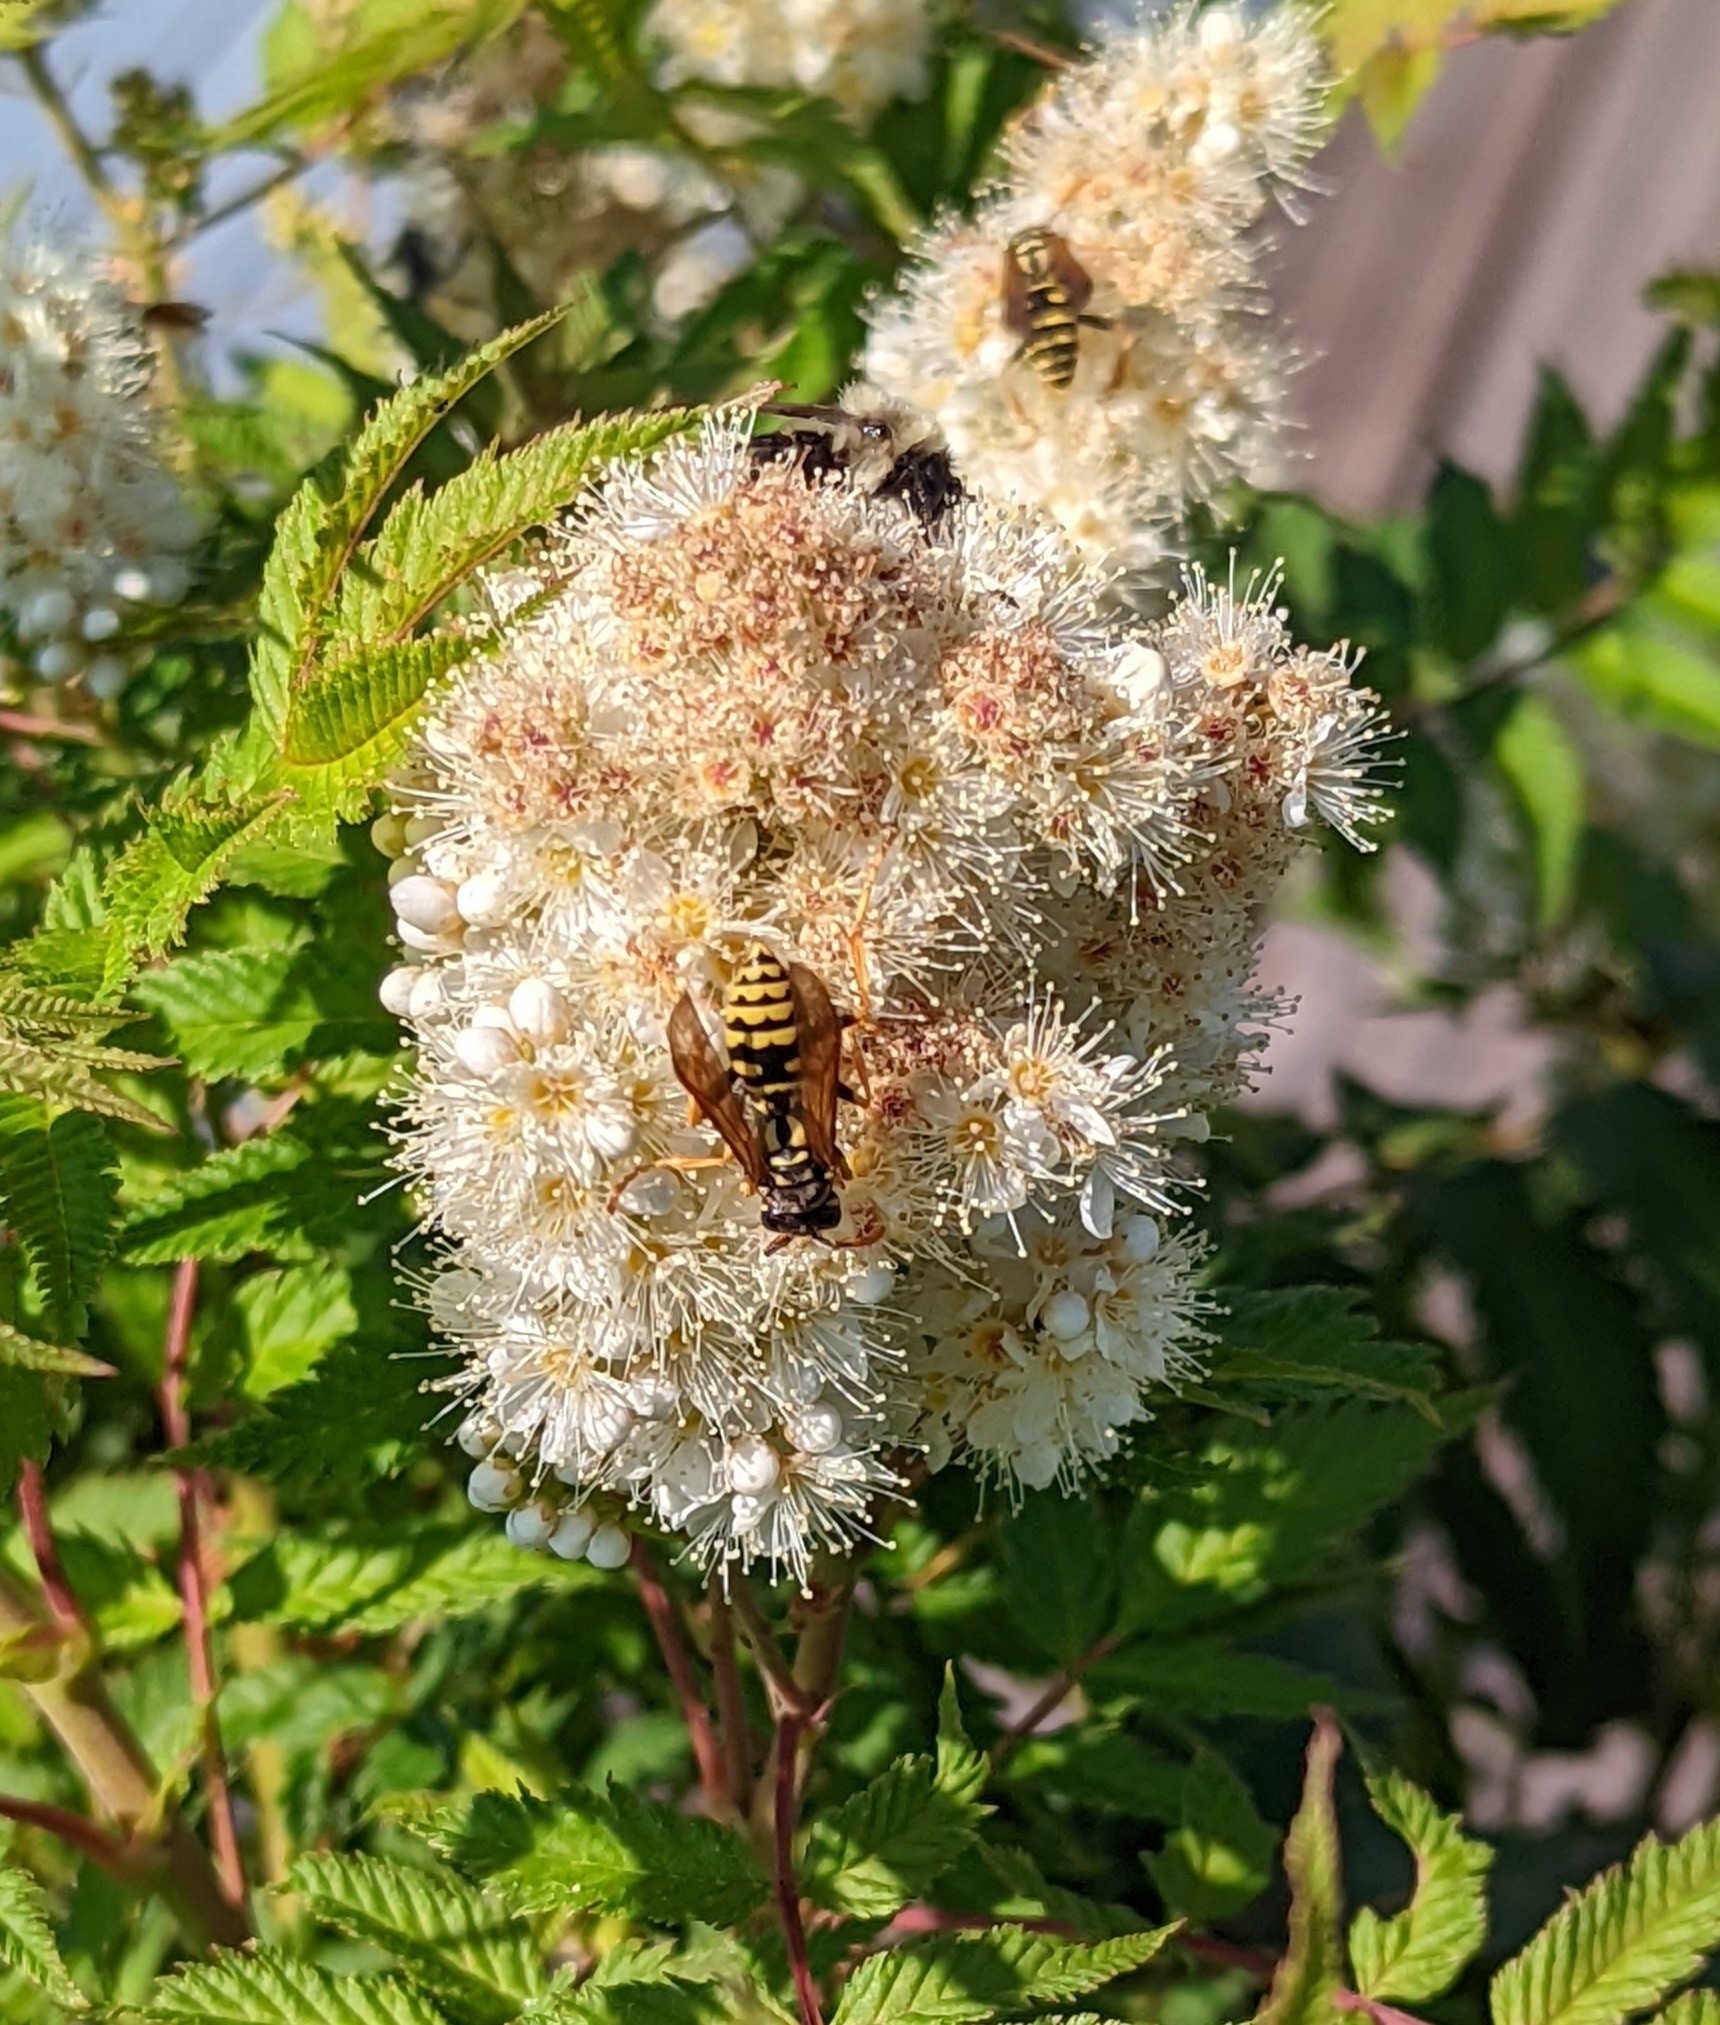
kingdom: Animalia
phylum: Arthropoda
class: Insecta
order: Hymenoptera
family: Eumenidae
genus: Polistes
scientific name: Polistes dominula
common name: Paper wasp
